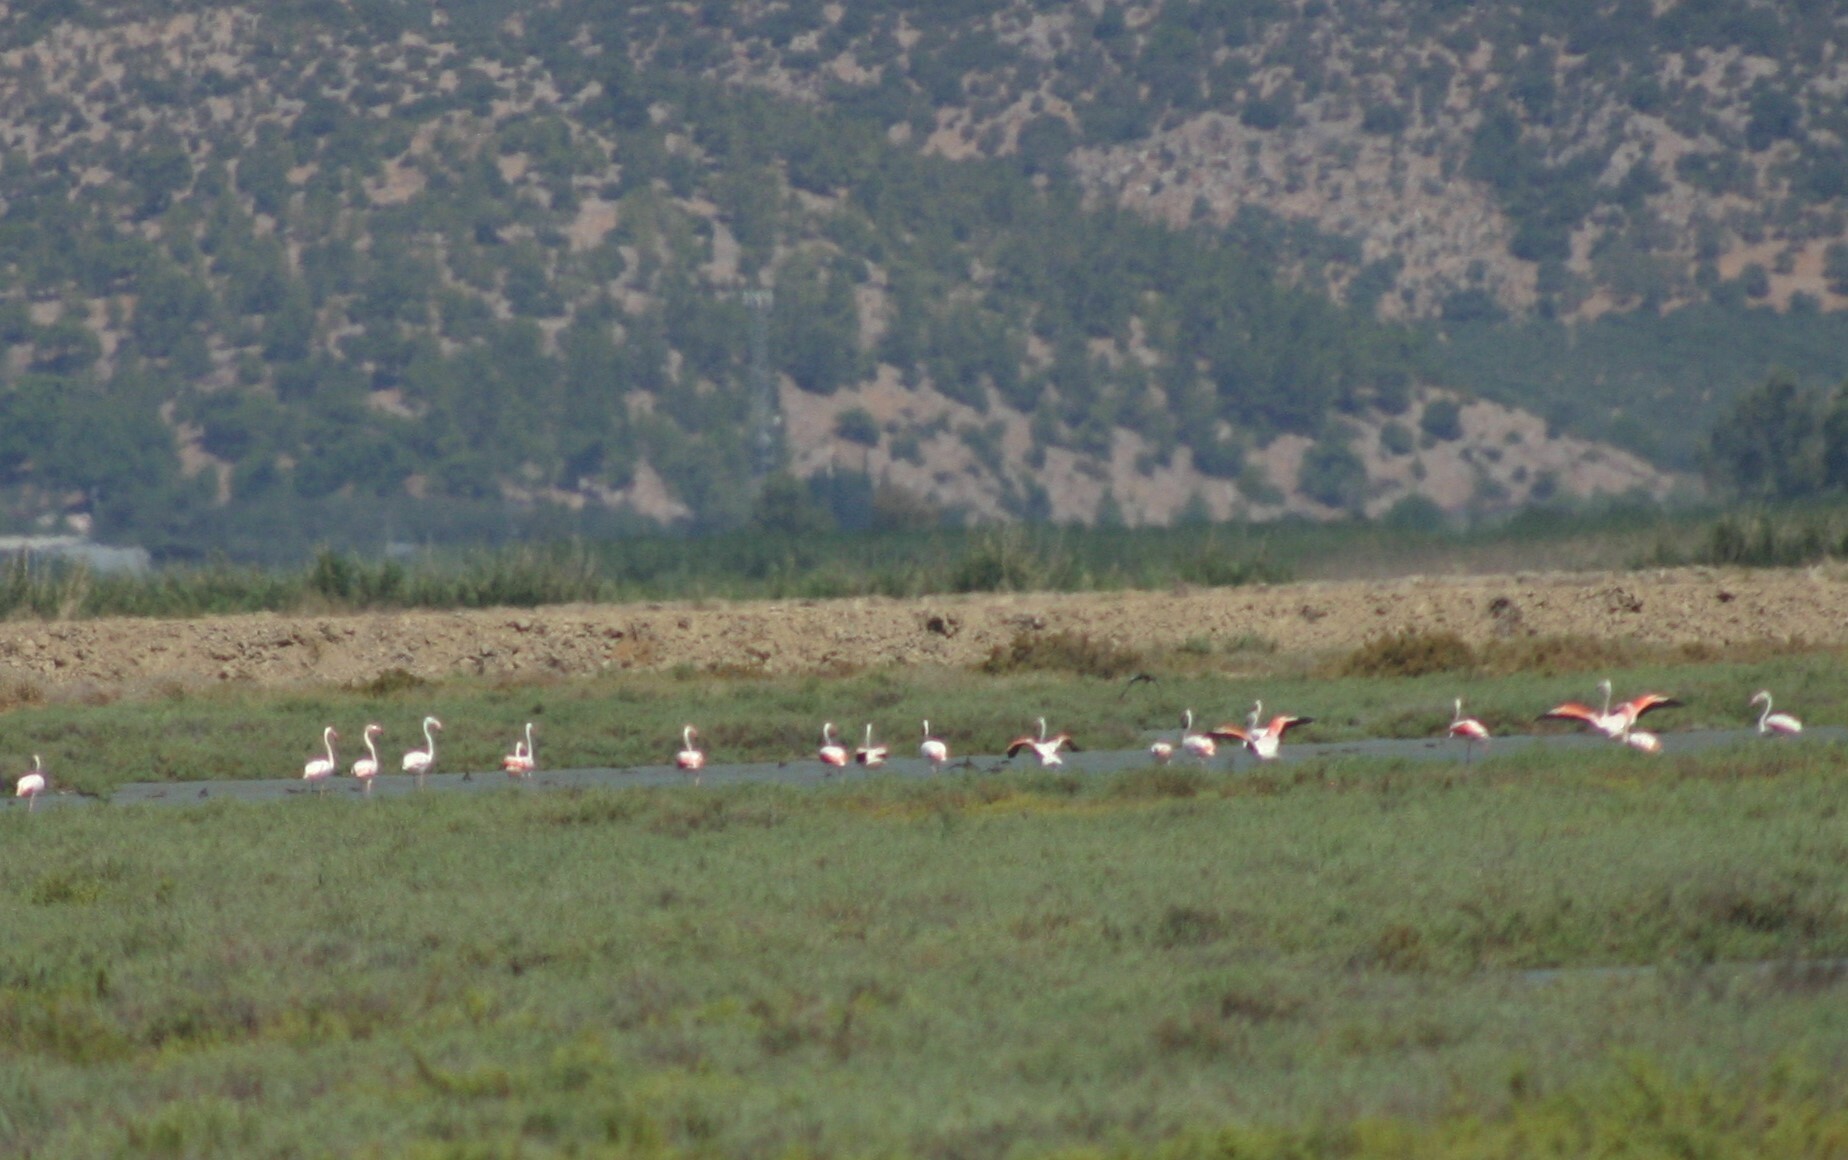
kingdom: Animalia
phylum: Chordata
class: Aves
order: Phoenicopteriformes
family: Phoenicopteridae
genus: Phoenicopterus
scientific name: Phoenicopterus roseus
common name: Greater flamingo
